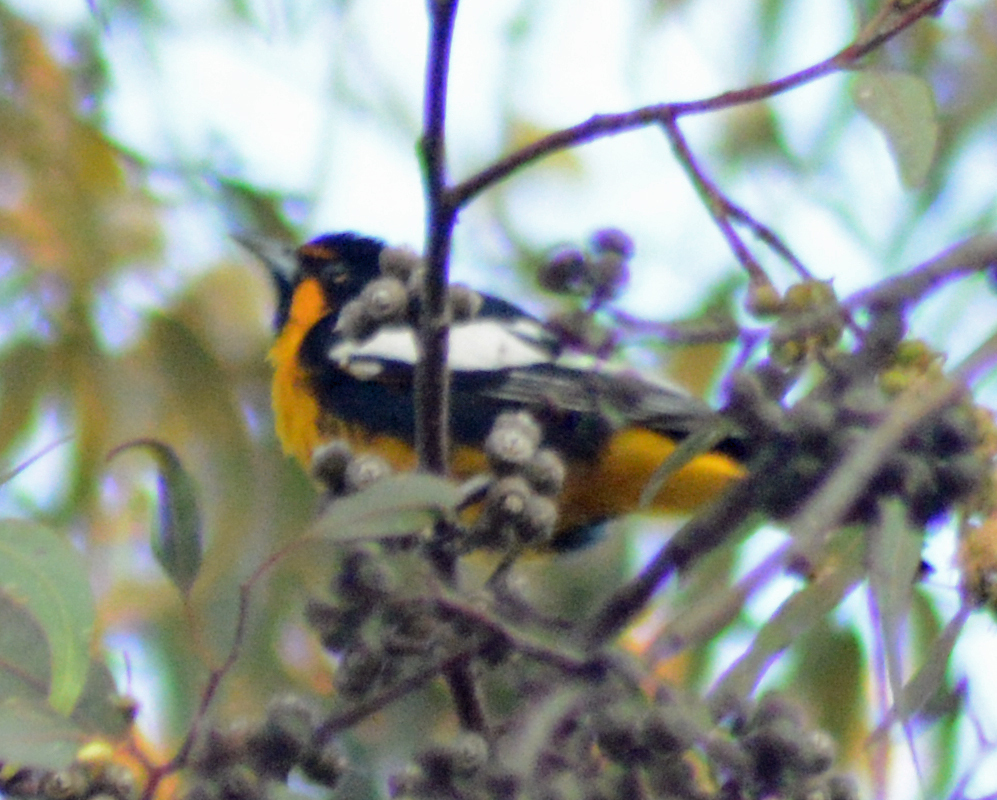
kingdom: Animalia
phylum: Chordata
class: Aves
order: Passeriformes
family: Icteridae
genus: Icterus
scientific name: Icterus abeillei
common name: Black-backed oriole
